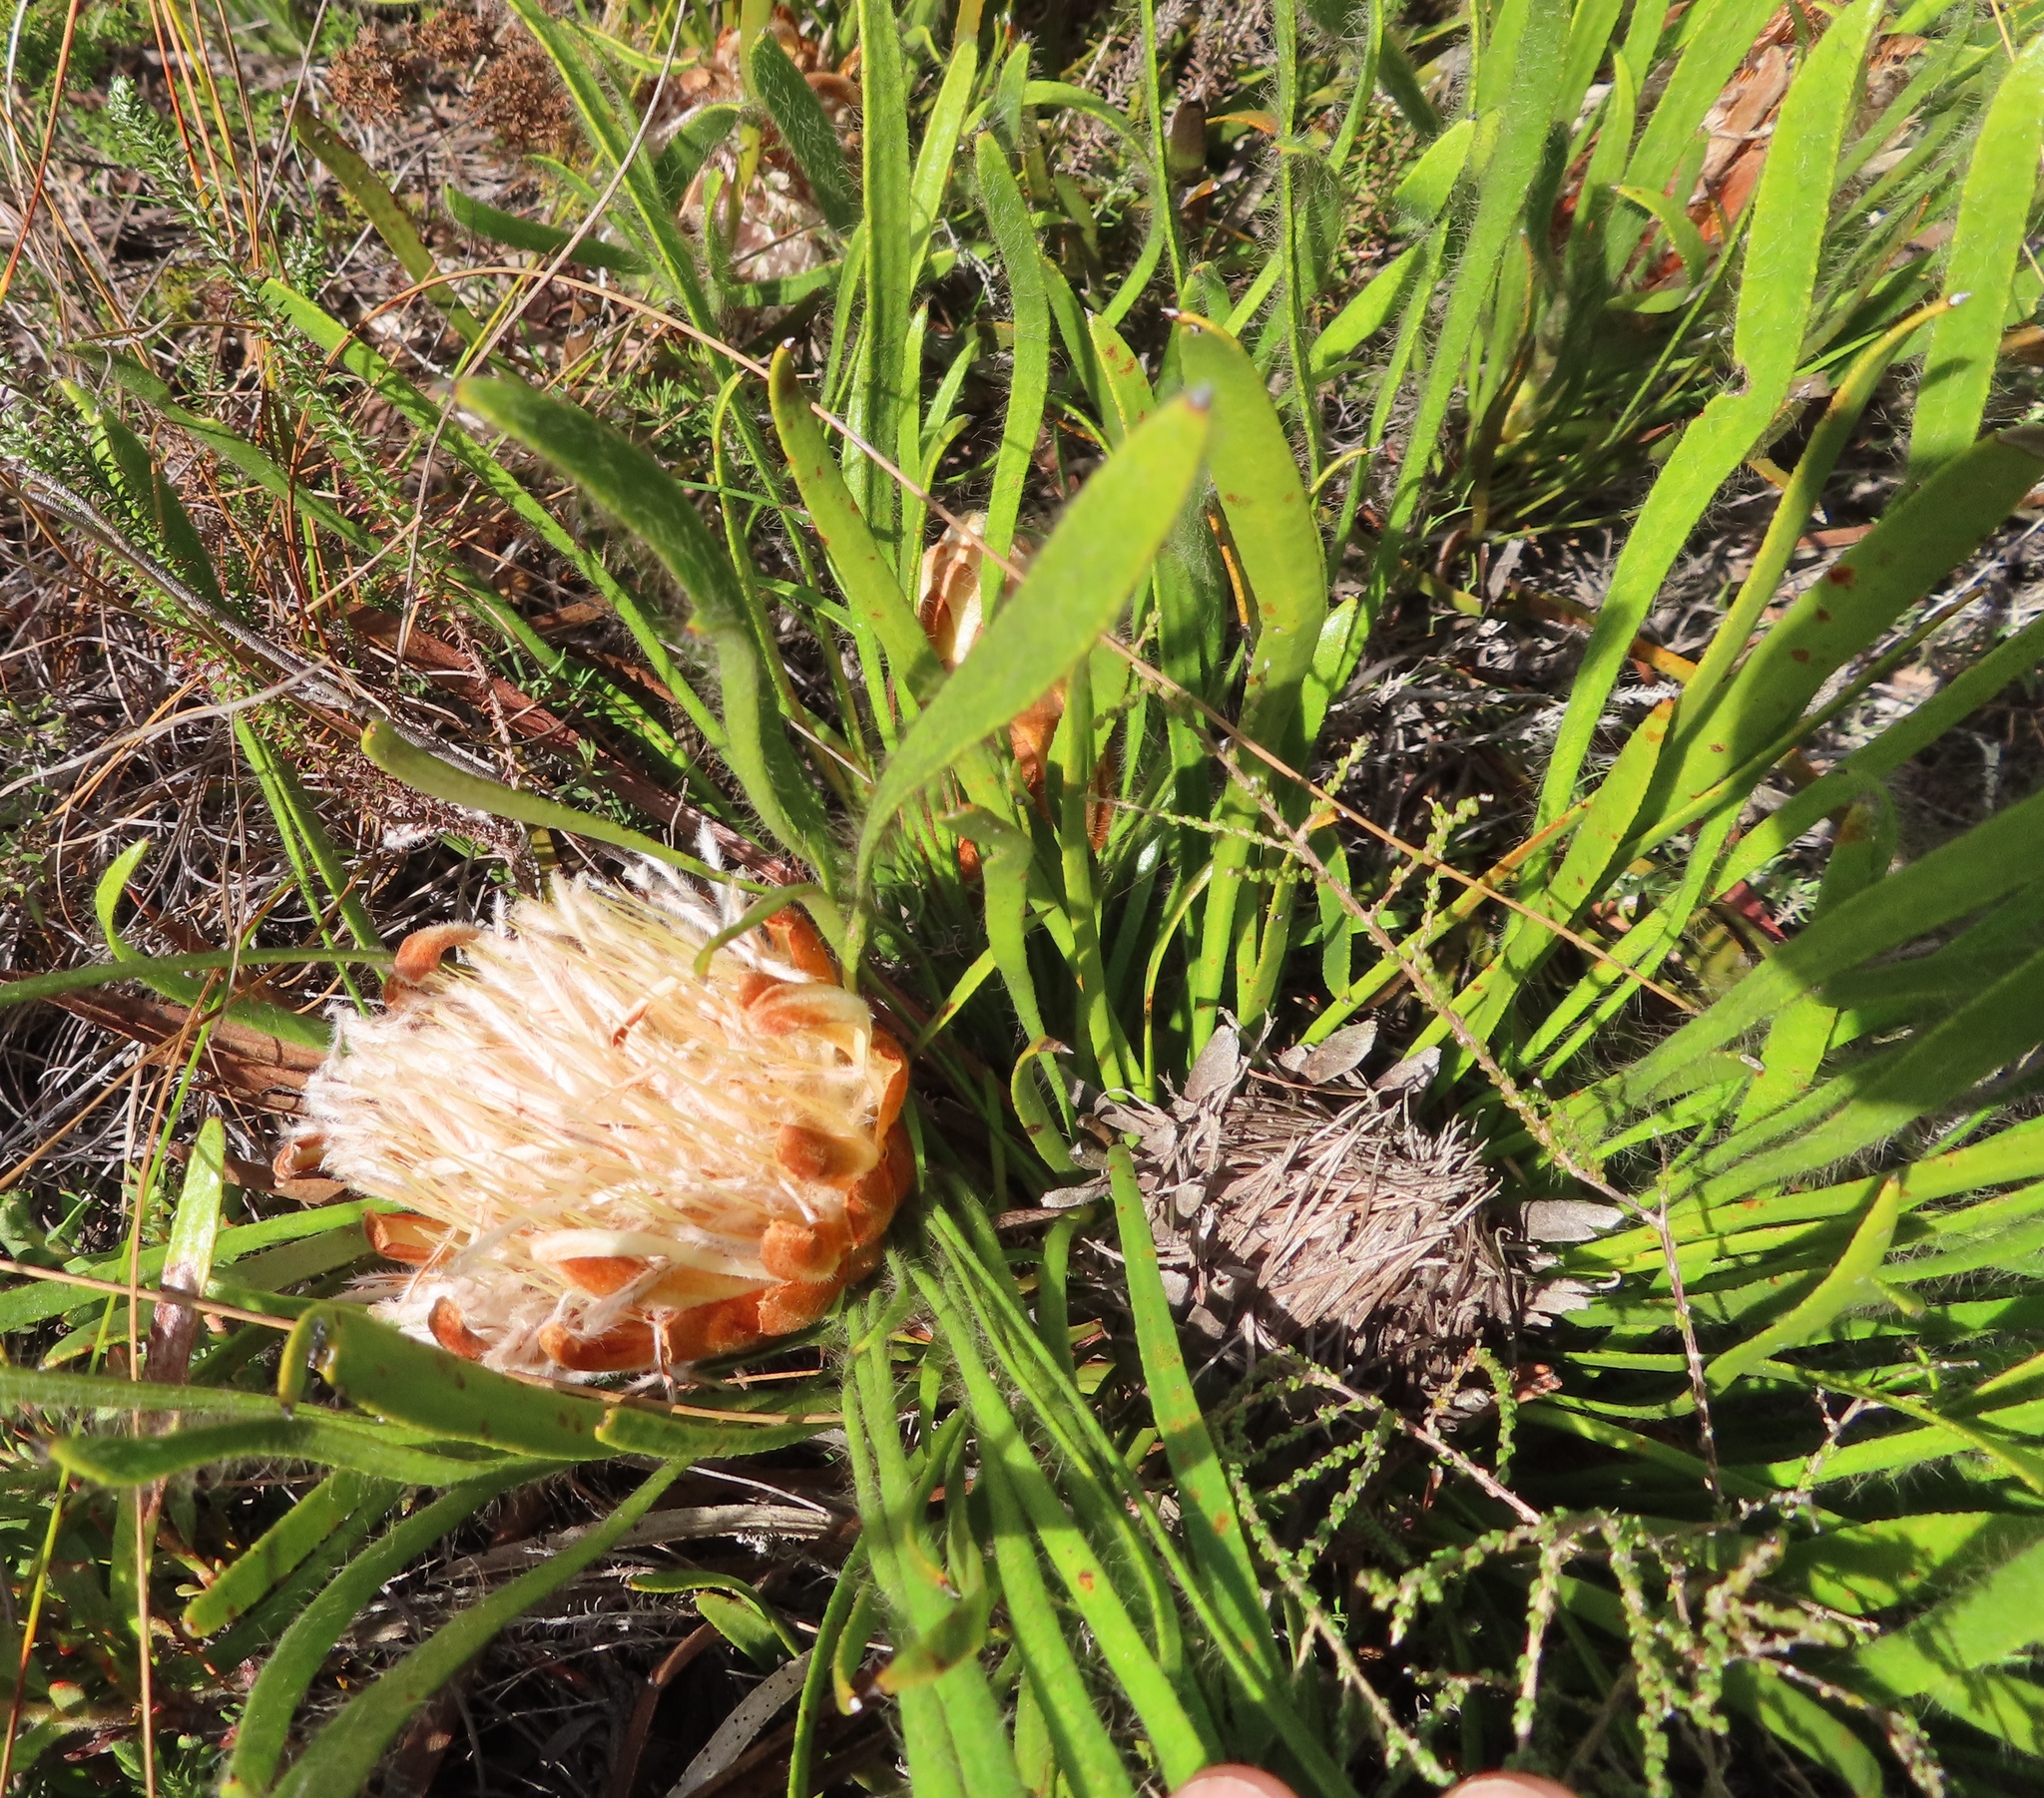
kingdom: Plantae
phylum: Tracheophyta
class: Magnoliopsida
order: Proteales
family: Proteaceae
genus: Protea
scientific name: Protea aspera
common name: Rough-leaf sugarbush
